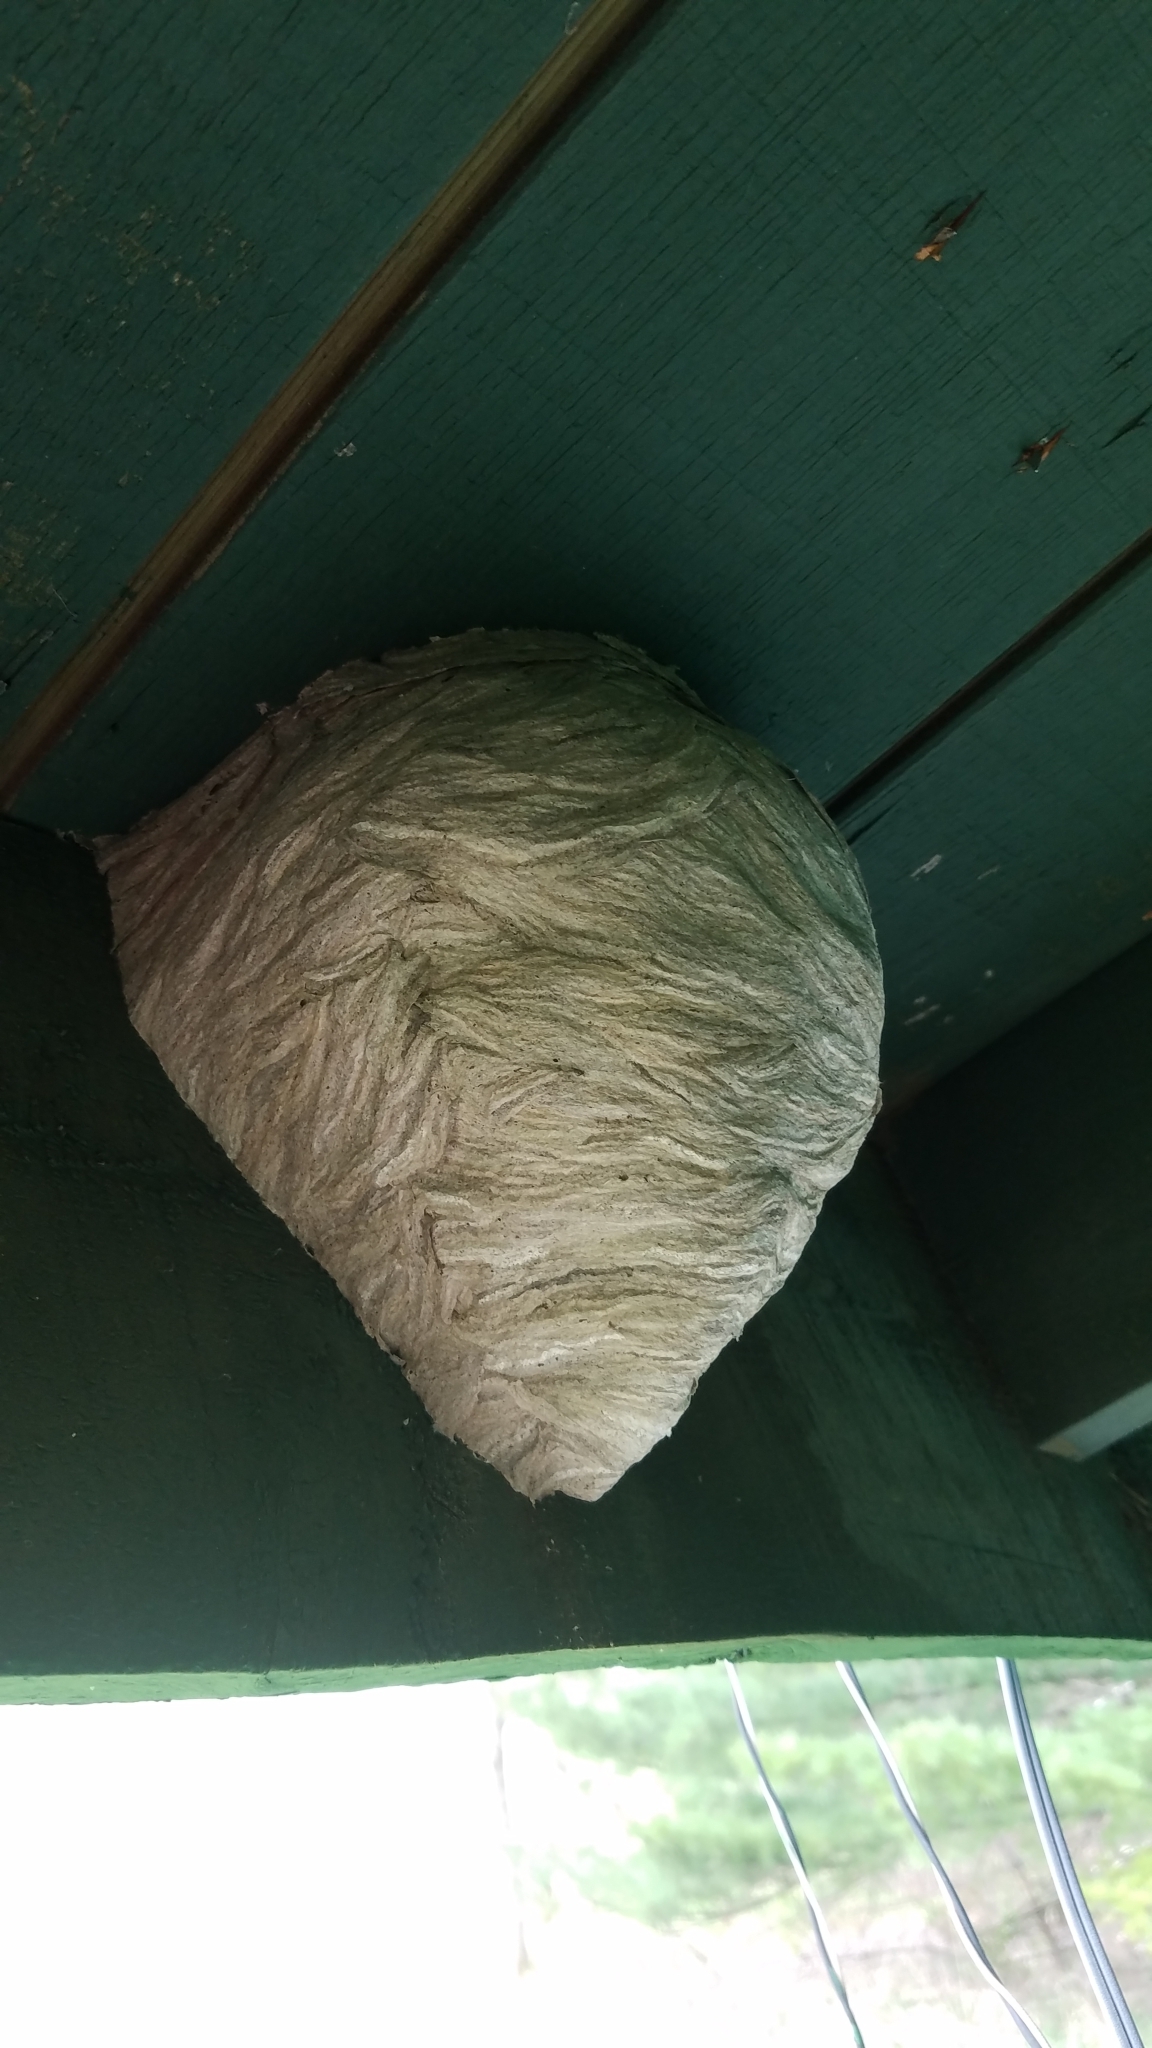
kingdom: Animalia
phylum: Arthropoda
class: Insecta
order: Hymenoptera
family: Vespidae
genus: Dolichovespula
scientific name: Dolichovespula
